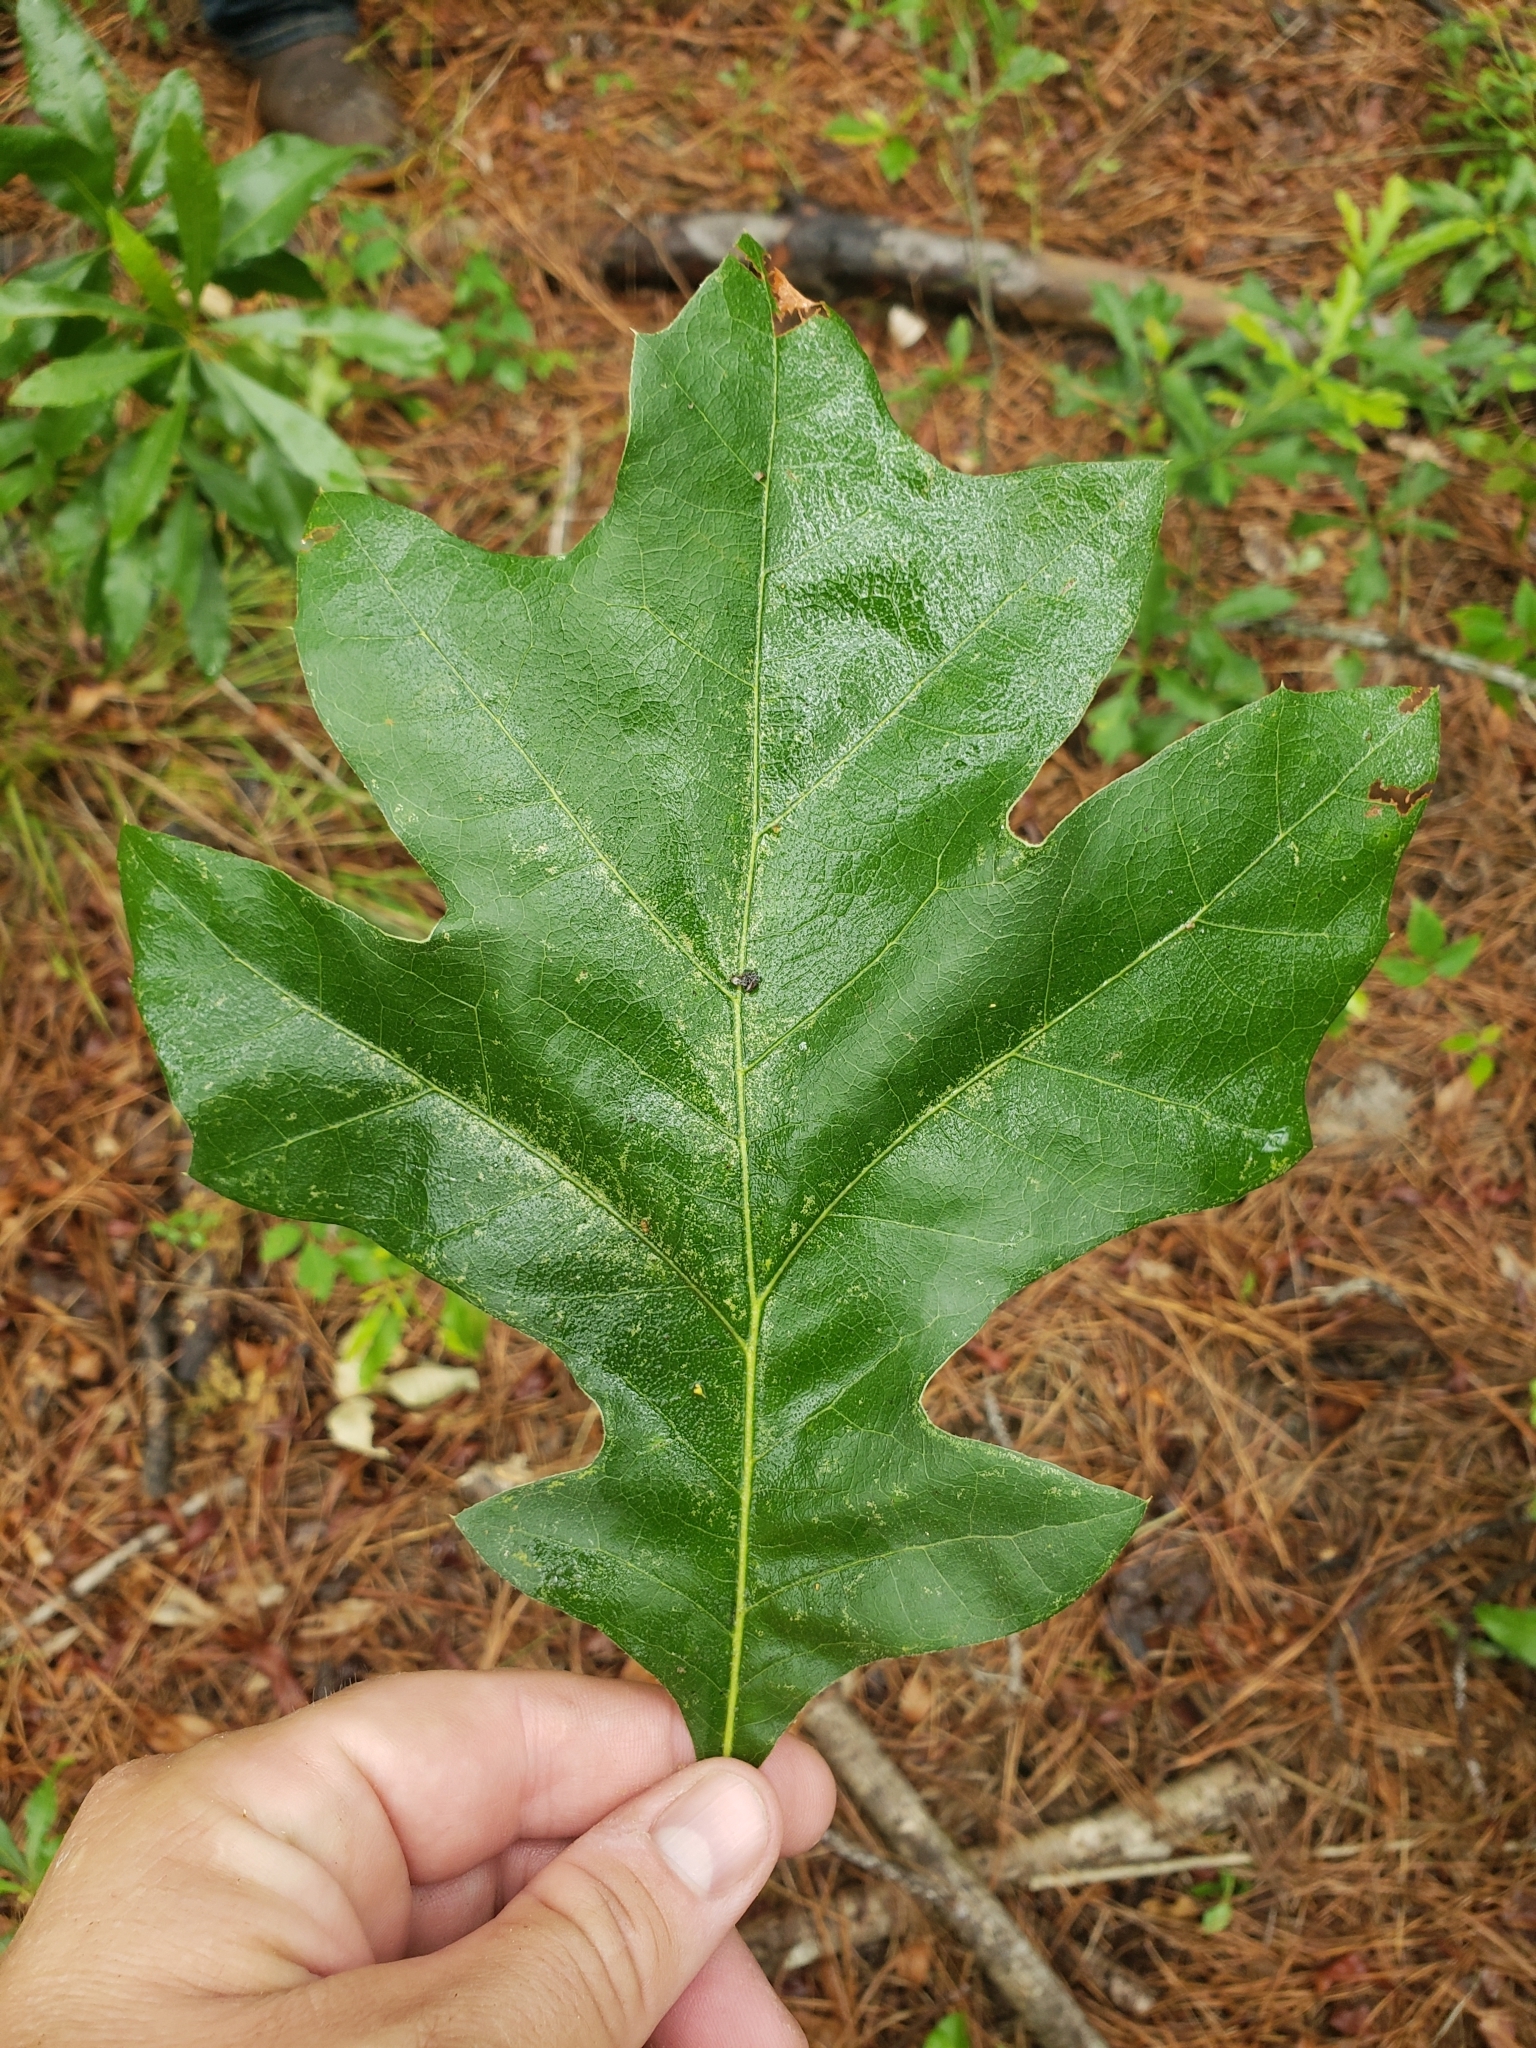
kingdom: Plantae
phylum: Tracheophyta
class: Magnoliopsida
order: Fagales
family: Fagaceae
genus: Quercus
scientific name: Quercus velutina
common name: Black oak
